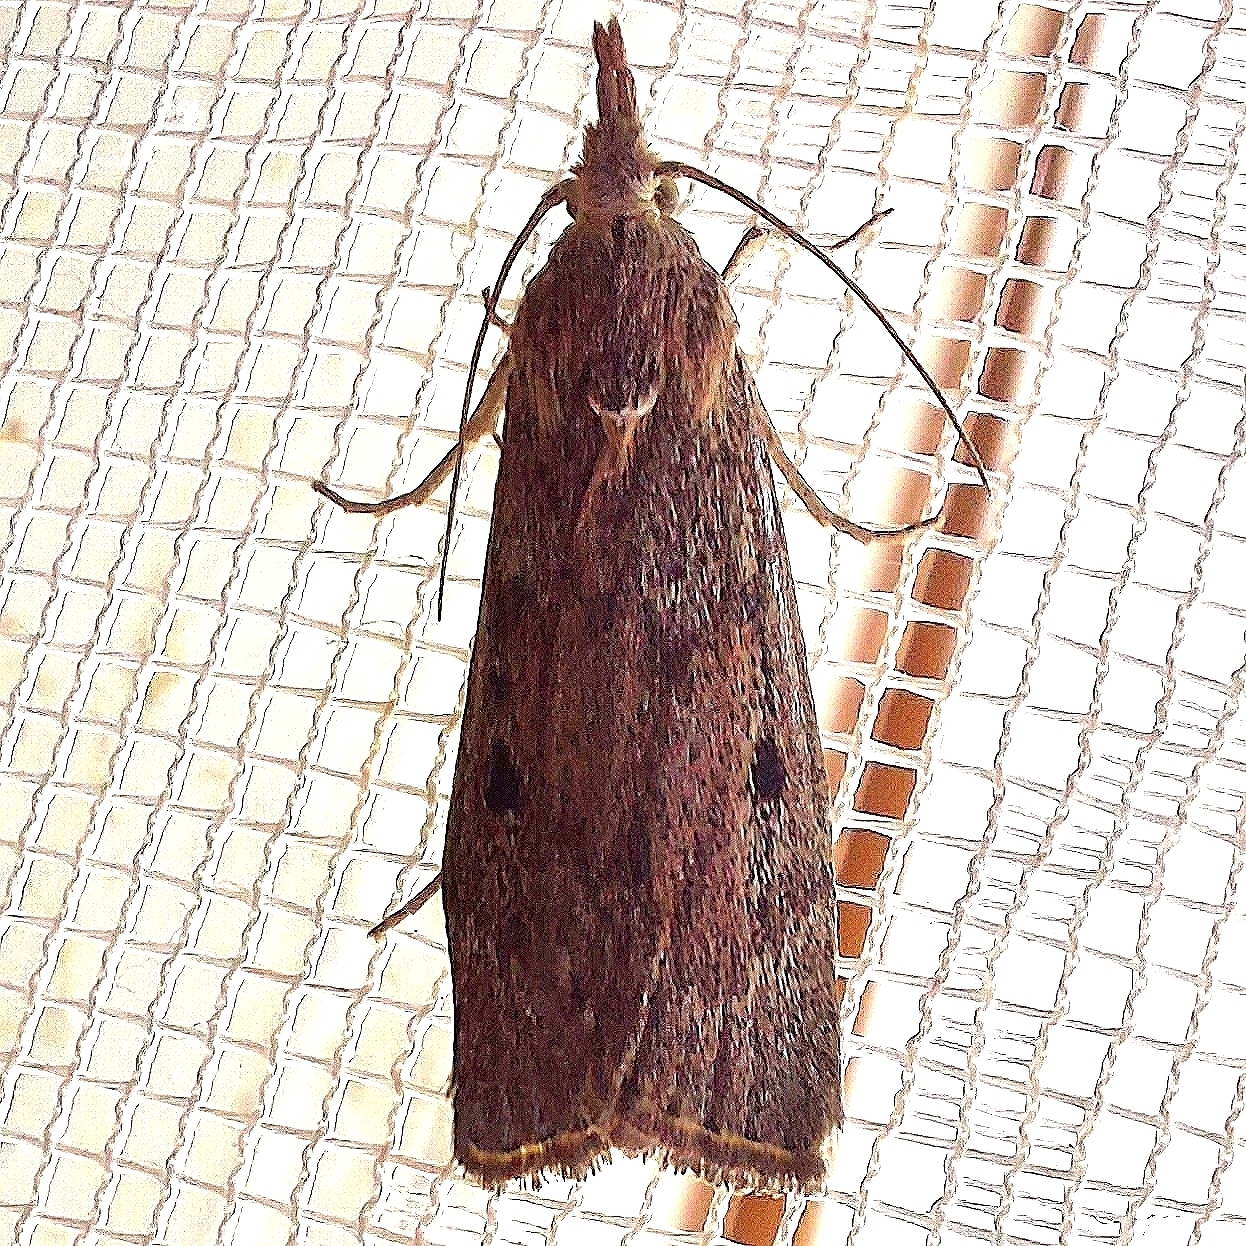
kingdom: Animalia
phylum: Arthropoda
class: Insecta
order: Lepidoptera
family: Pyralidae
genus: Aphomia
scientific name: Aphomia sociella
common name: Bee moth
